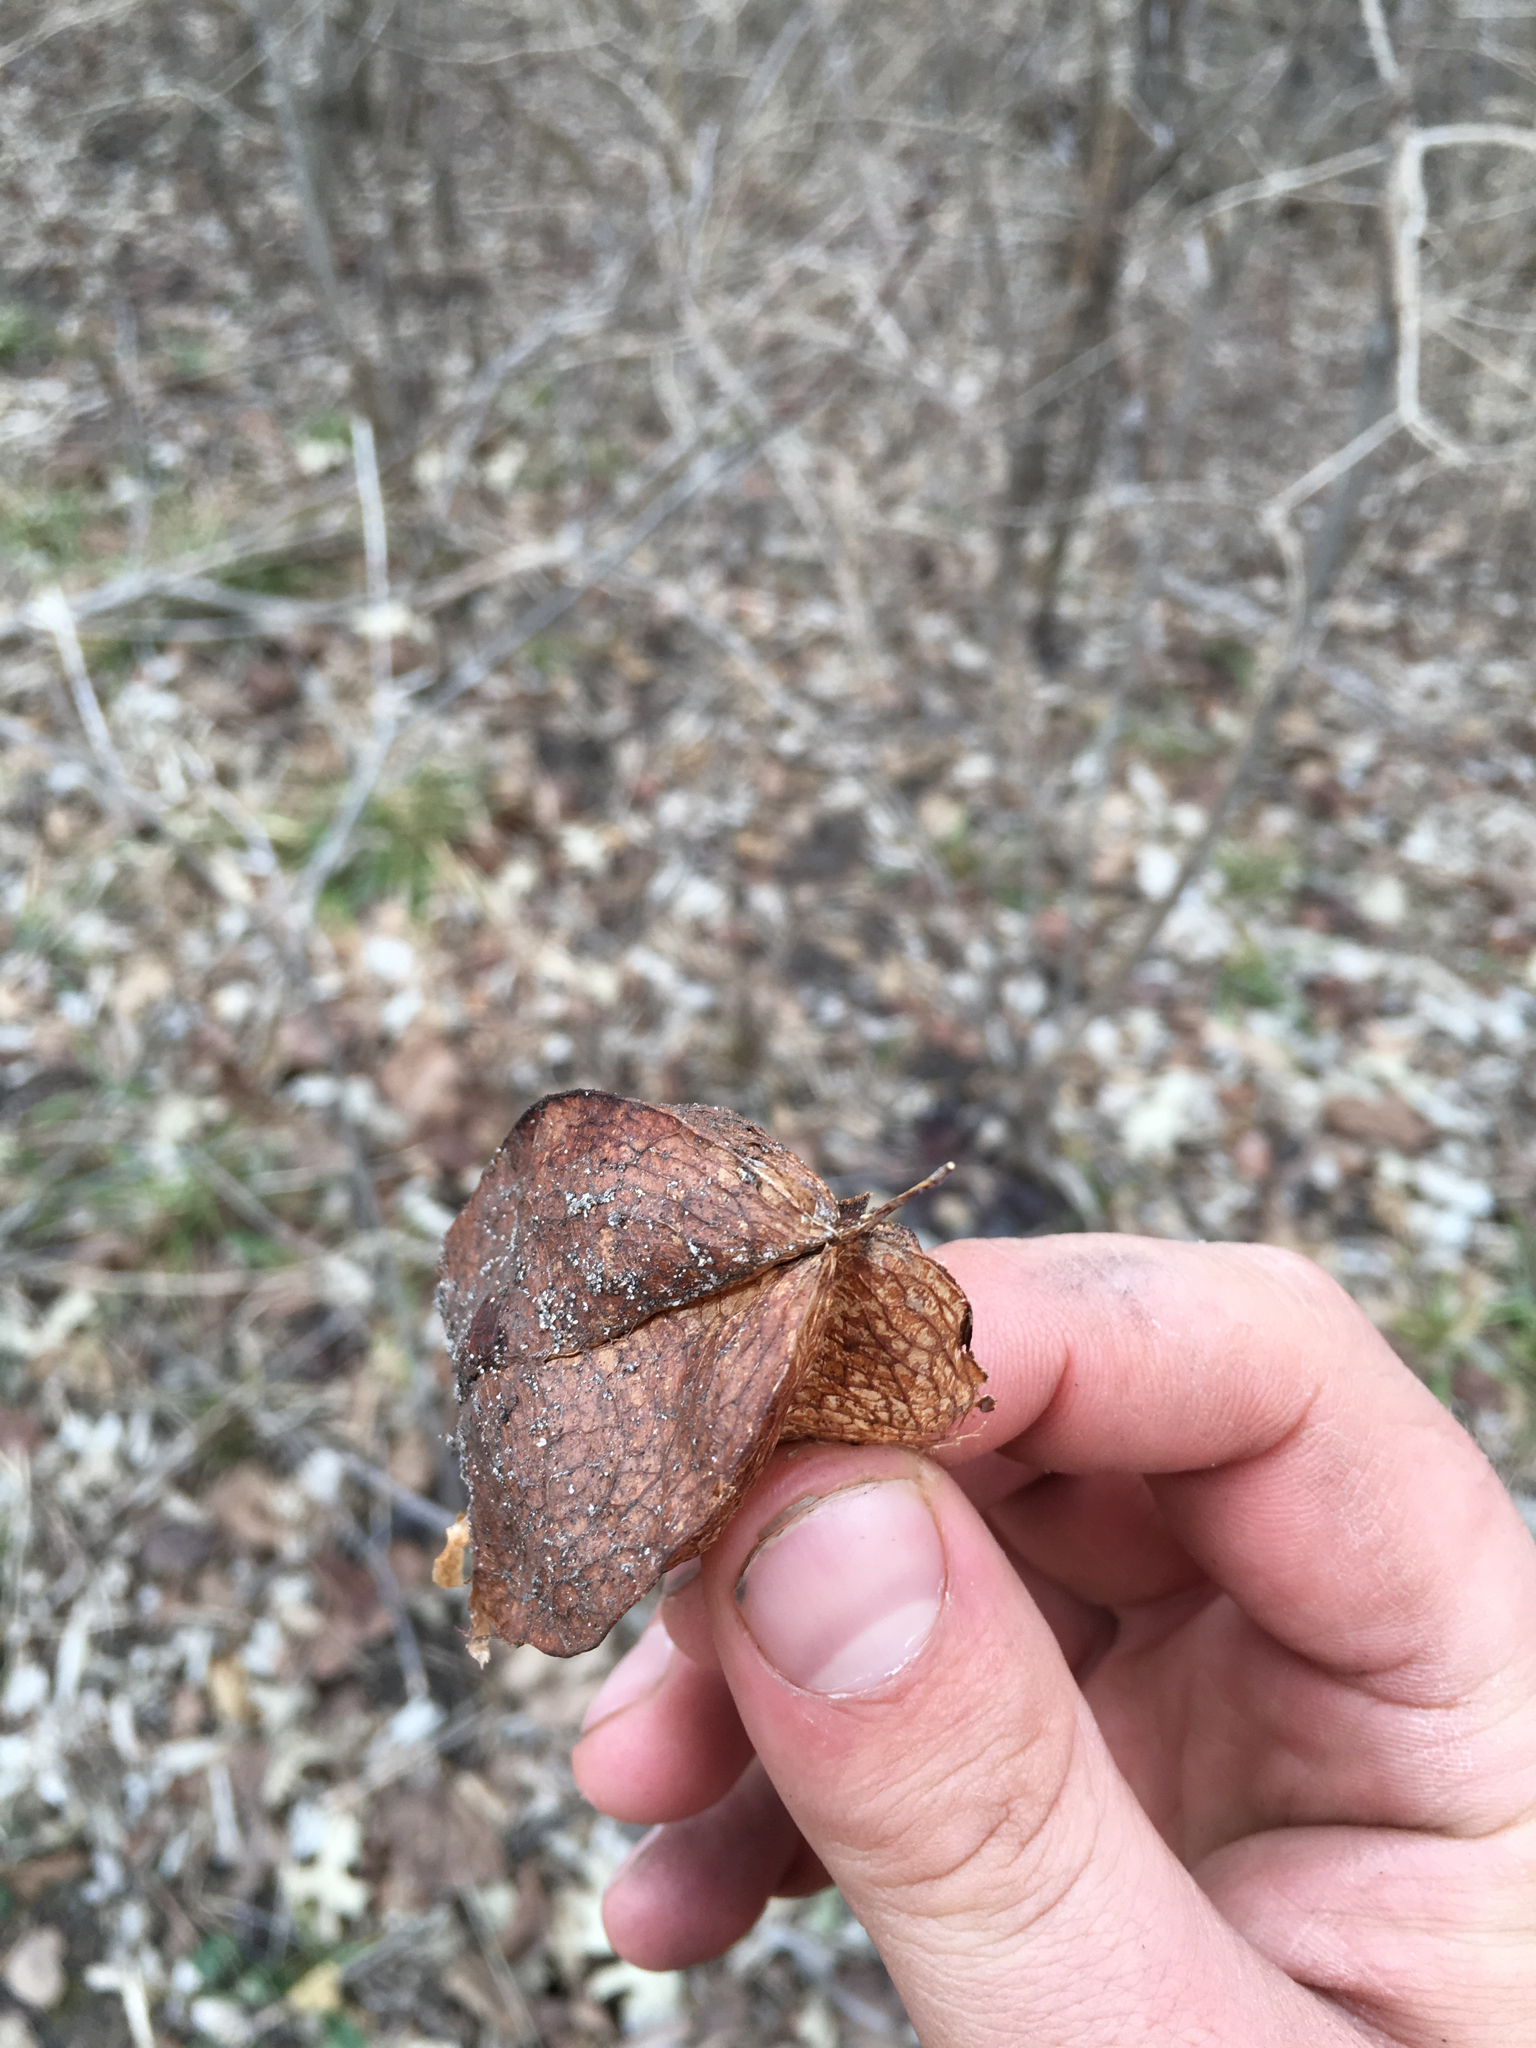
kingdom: Plantae
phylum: Tracheophyta
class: Magnoliopsida
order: Crossosomatales
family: Staphyleaceae
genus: Staphylea
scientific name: Staphylea trifolia
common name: American bladdernut
